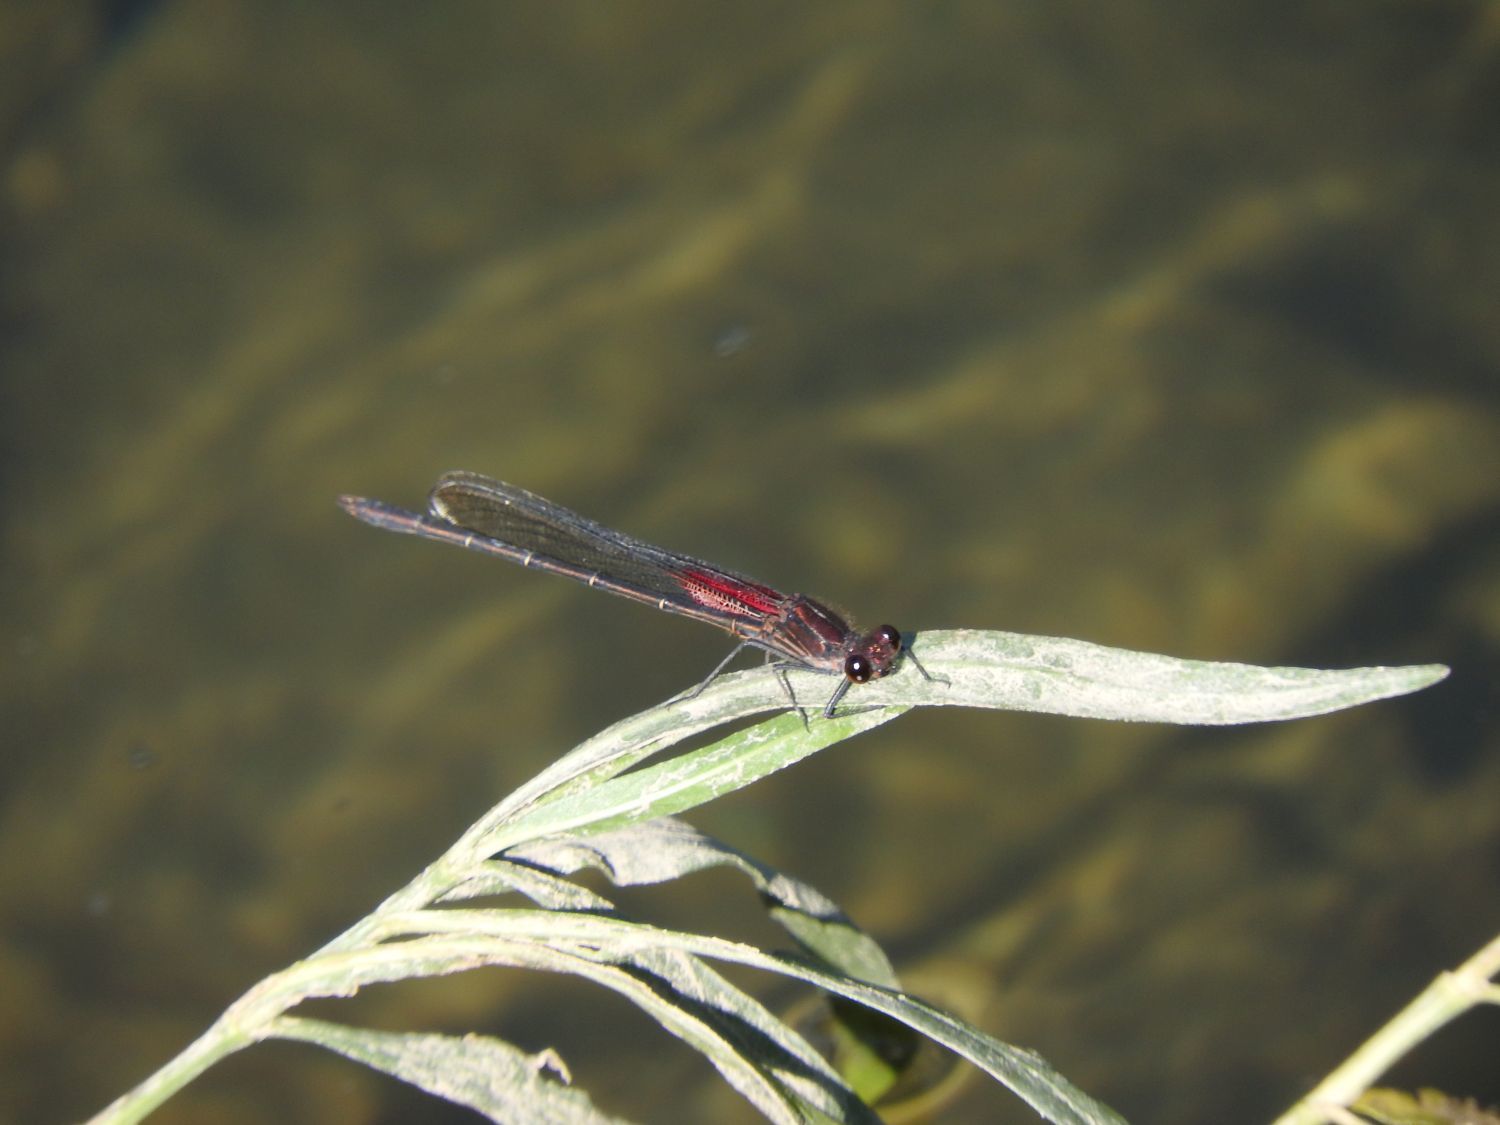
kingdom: Animalia
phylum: Arthropoda
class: Insecta
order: Odonata
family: Calopterygidae
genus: Hetaerina
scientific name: Hetaerina americana
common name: American rubyspot
